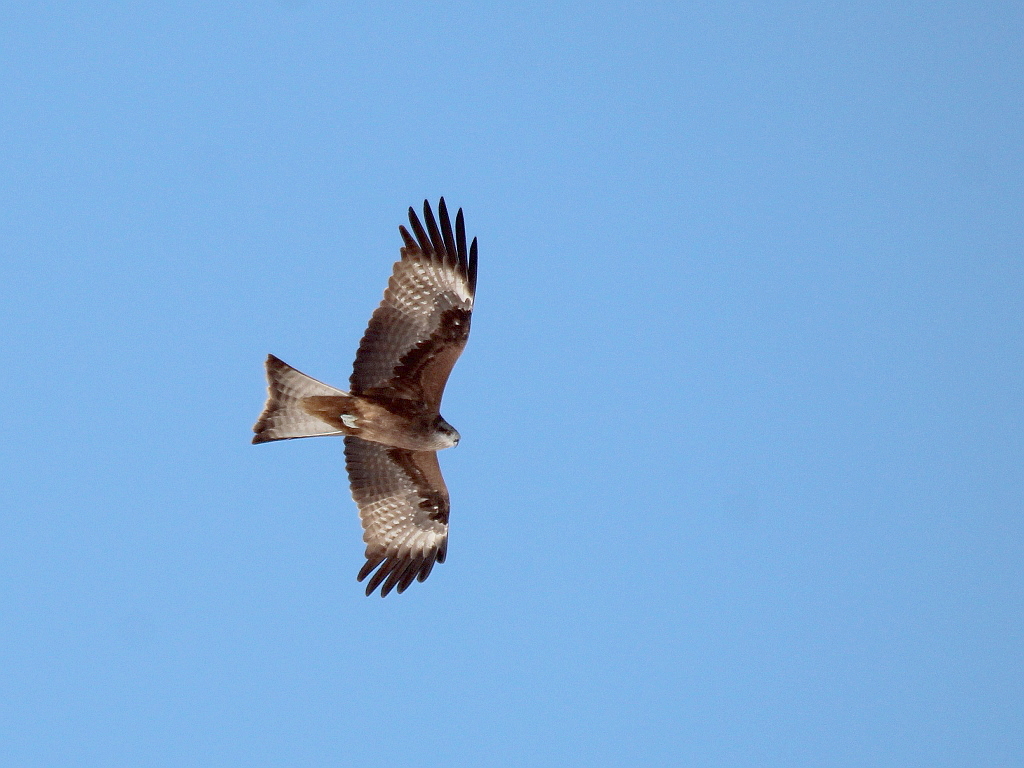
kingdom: Animalia
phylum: Chordata
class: Aves
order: Accipitriformes
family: Accipitridae
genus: Milvus
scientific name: Milvus migrans
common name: Black kite
